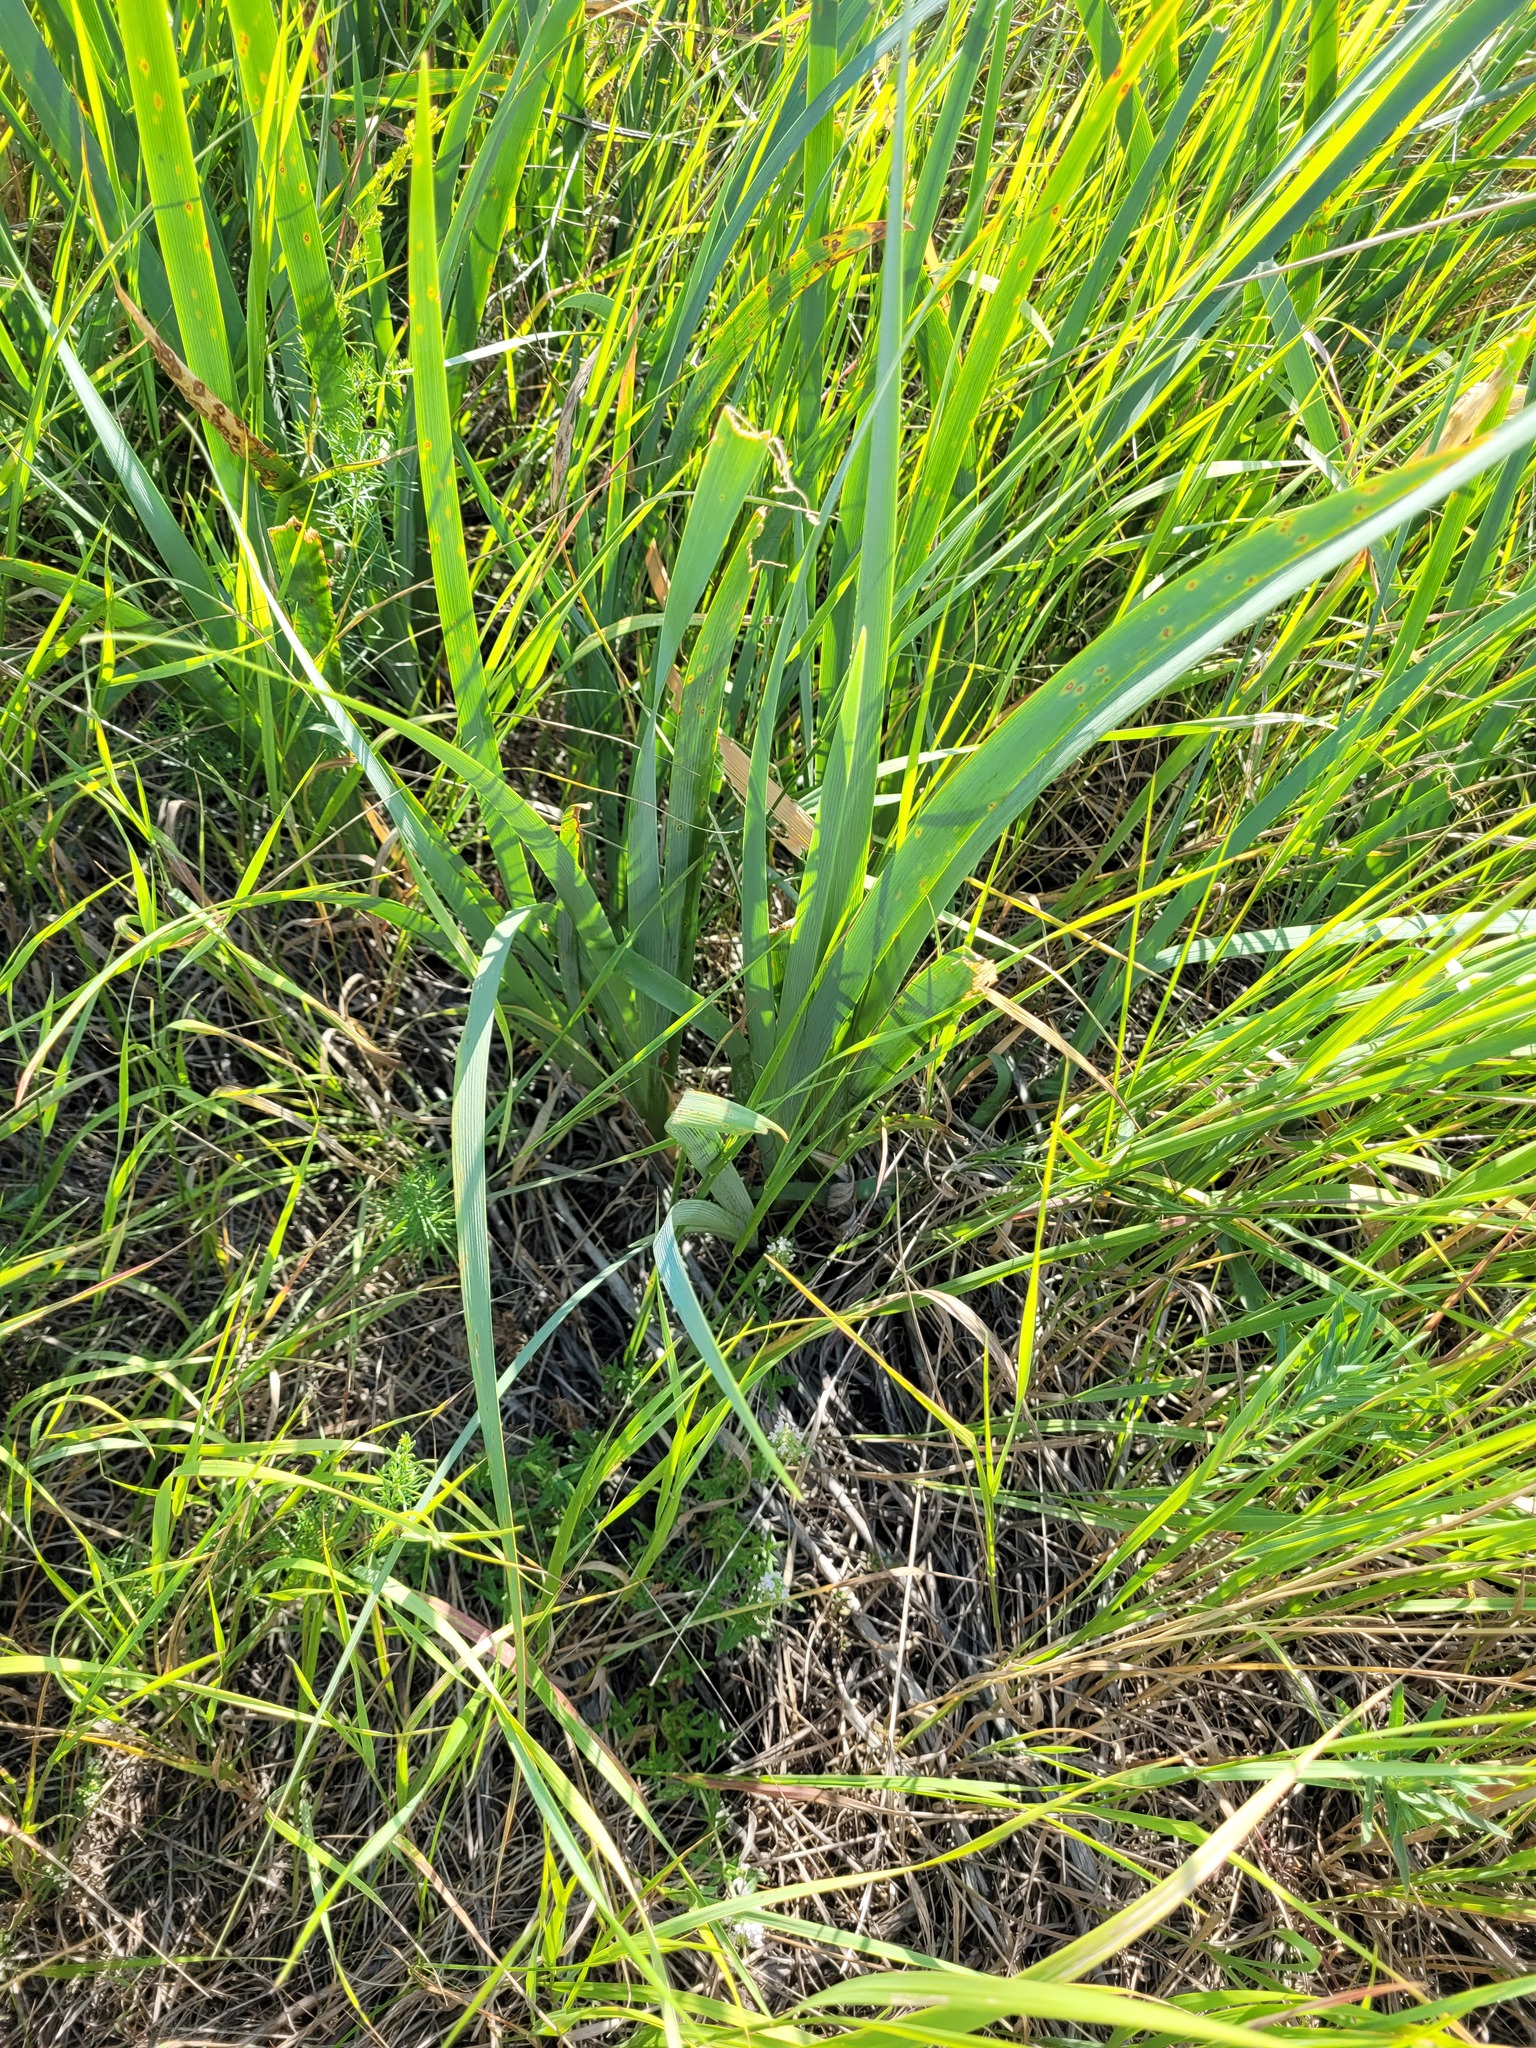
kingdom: Plantae
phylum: Tracheophyta
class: Liliopsida
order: Asparagales
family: Iridaceae
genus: Iris
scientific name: Iris halophila
